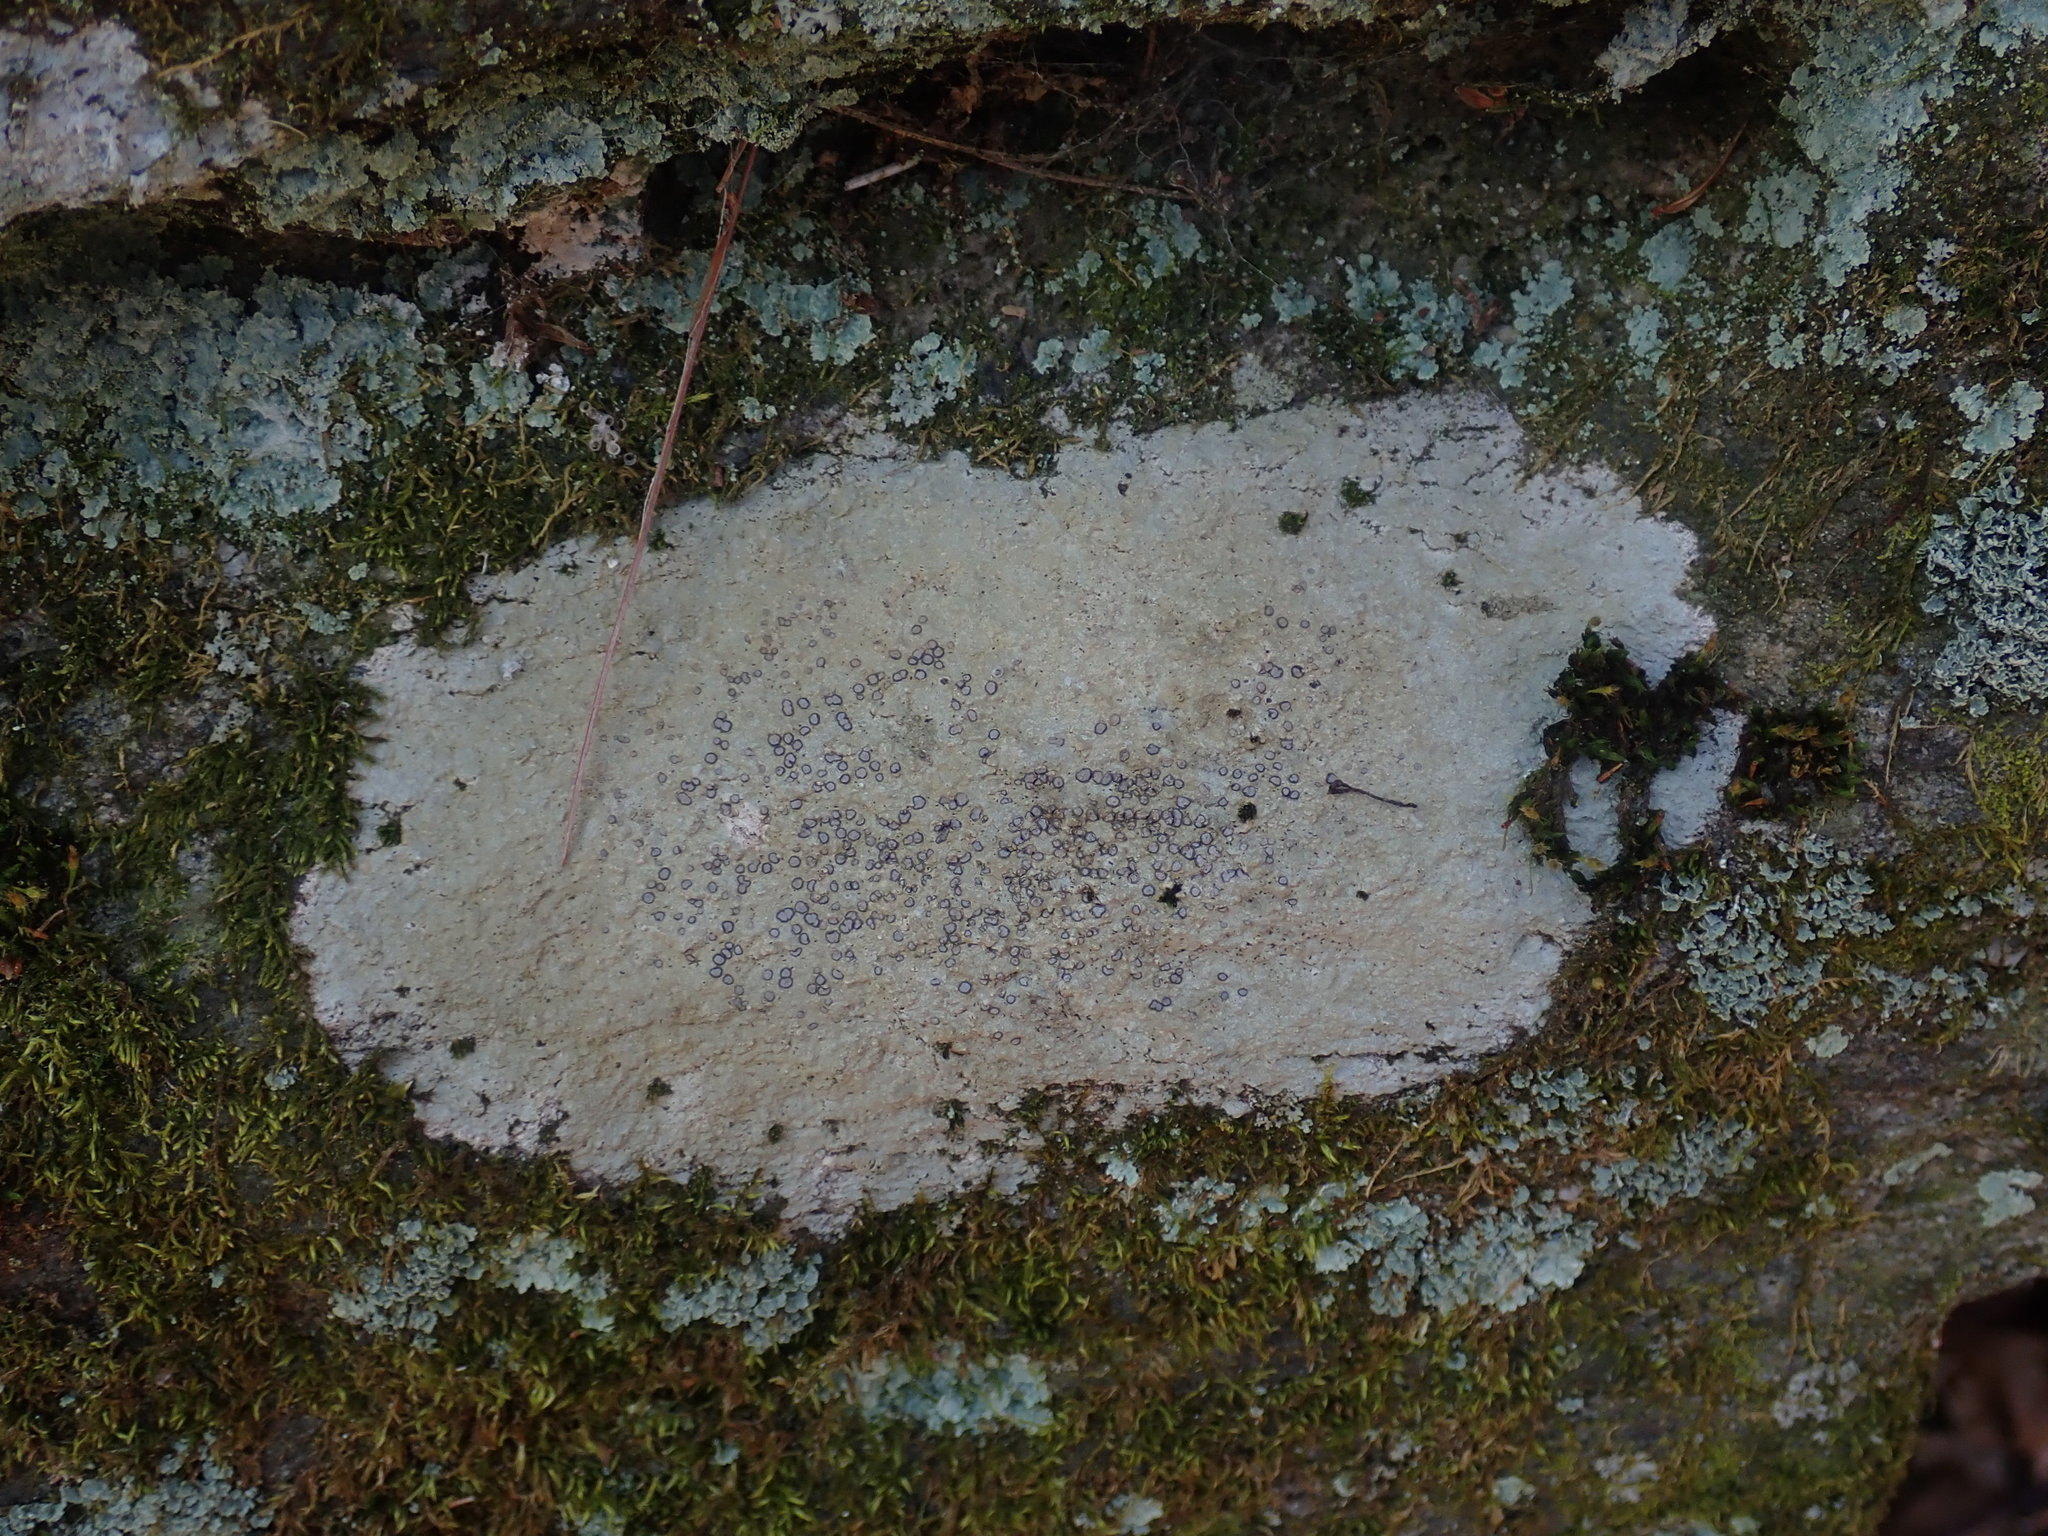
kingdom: Fungi
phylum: Ascomycota
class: Lecanoromycetes
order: Lecideales
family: Lecideaceae
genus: Porpidia
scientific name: Porpidia albocaerulescens
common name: Smokey-eyed boulder lichen
